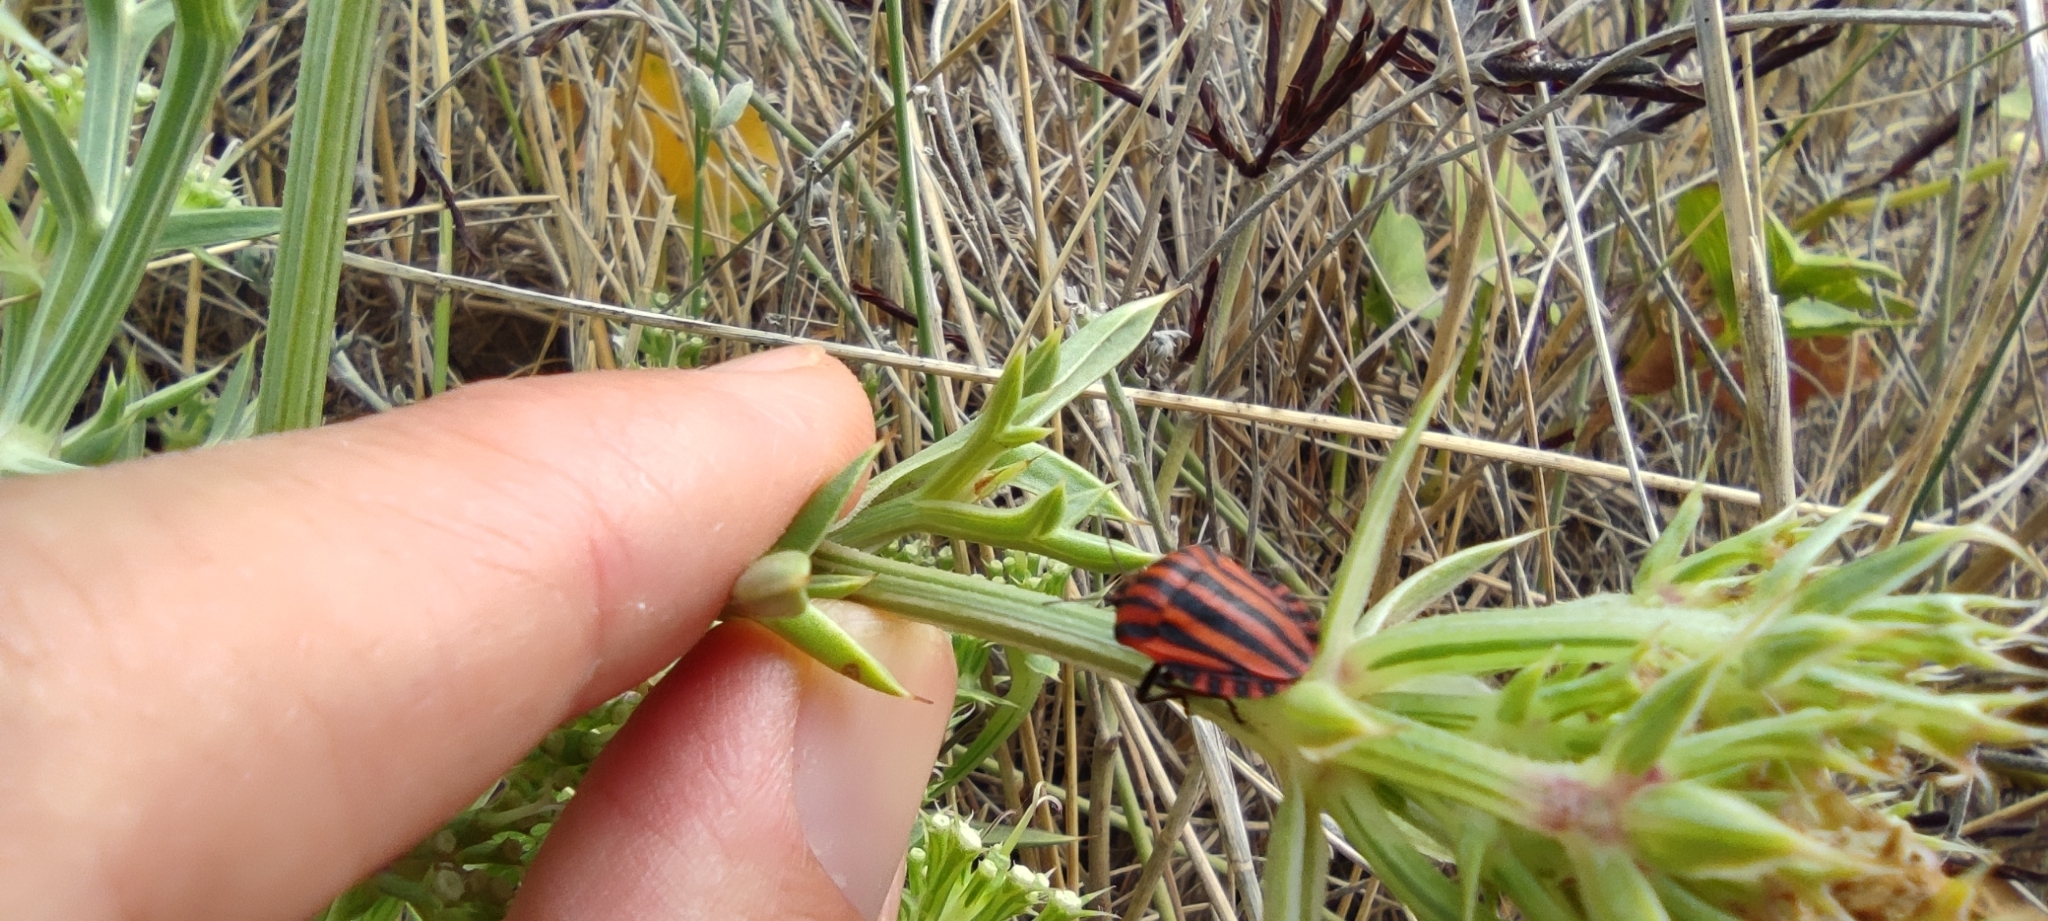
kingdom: Animalia
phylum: Arthropoda
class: Insecta
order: Hemiptera
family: Pentatomidae
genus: Graphosoma
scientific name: Graphosoma italicum
